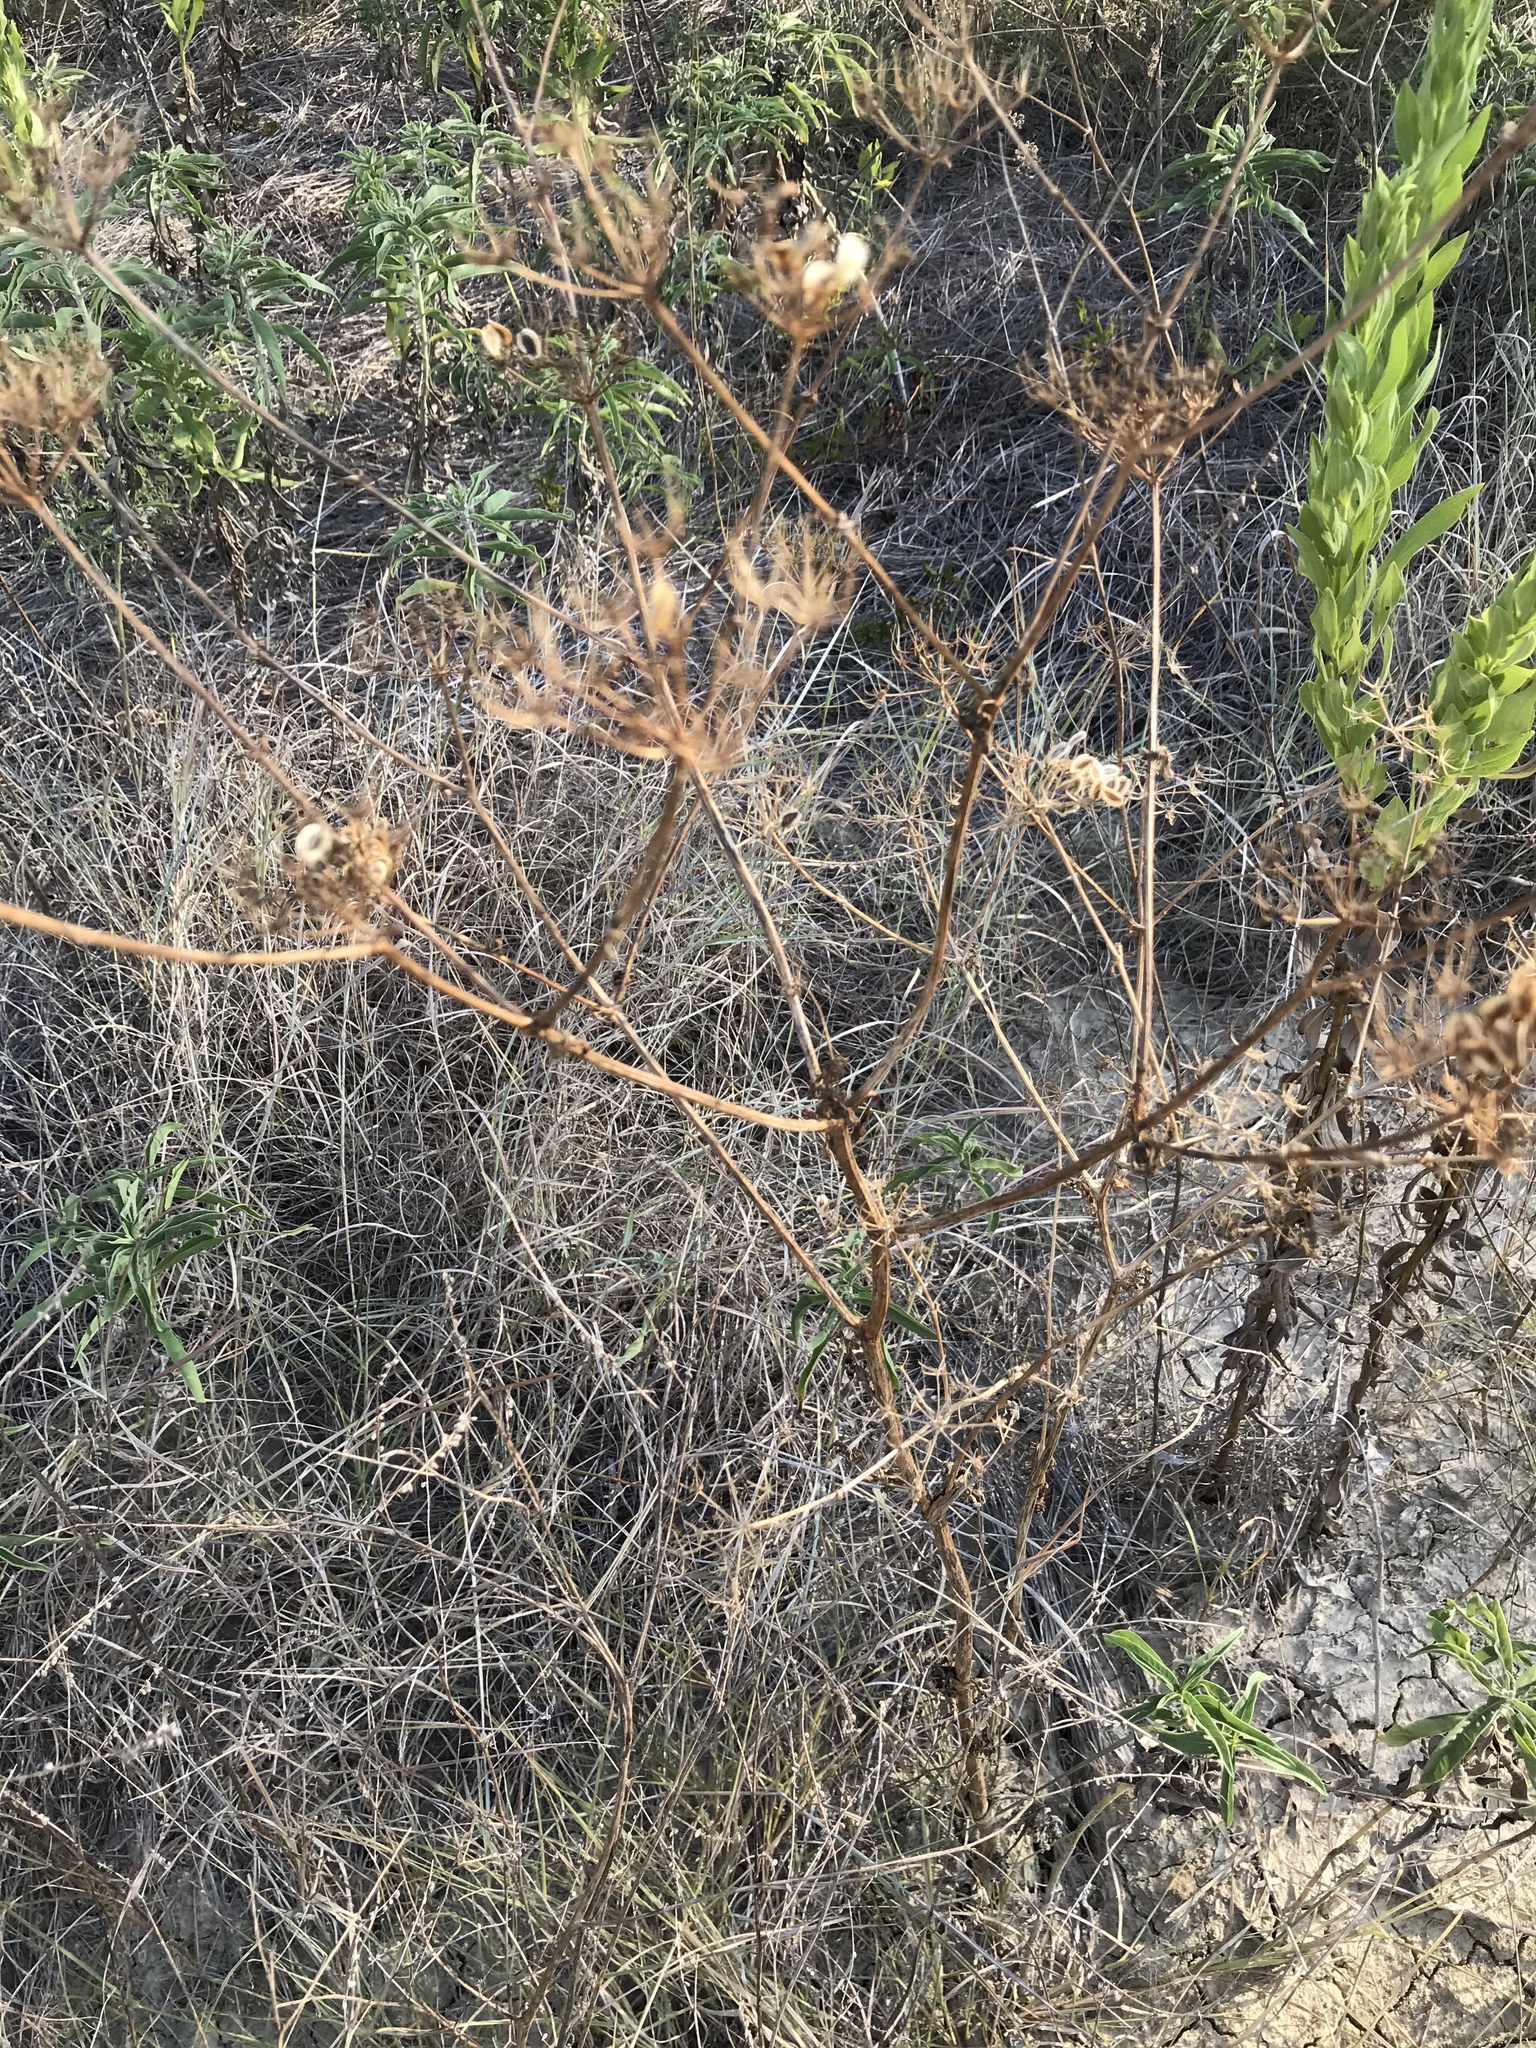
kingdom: Plantae
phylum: Tracheophyta
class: Magnoliopsida
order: Apiales
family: Apiaceae
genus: Polytaenia
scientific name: Polytaenia texana
